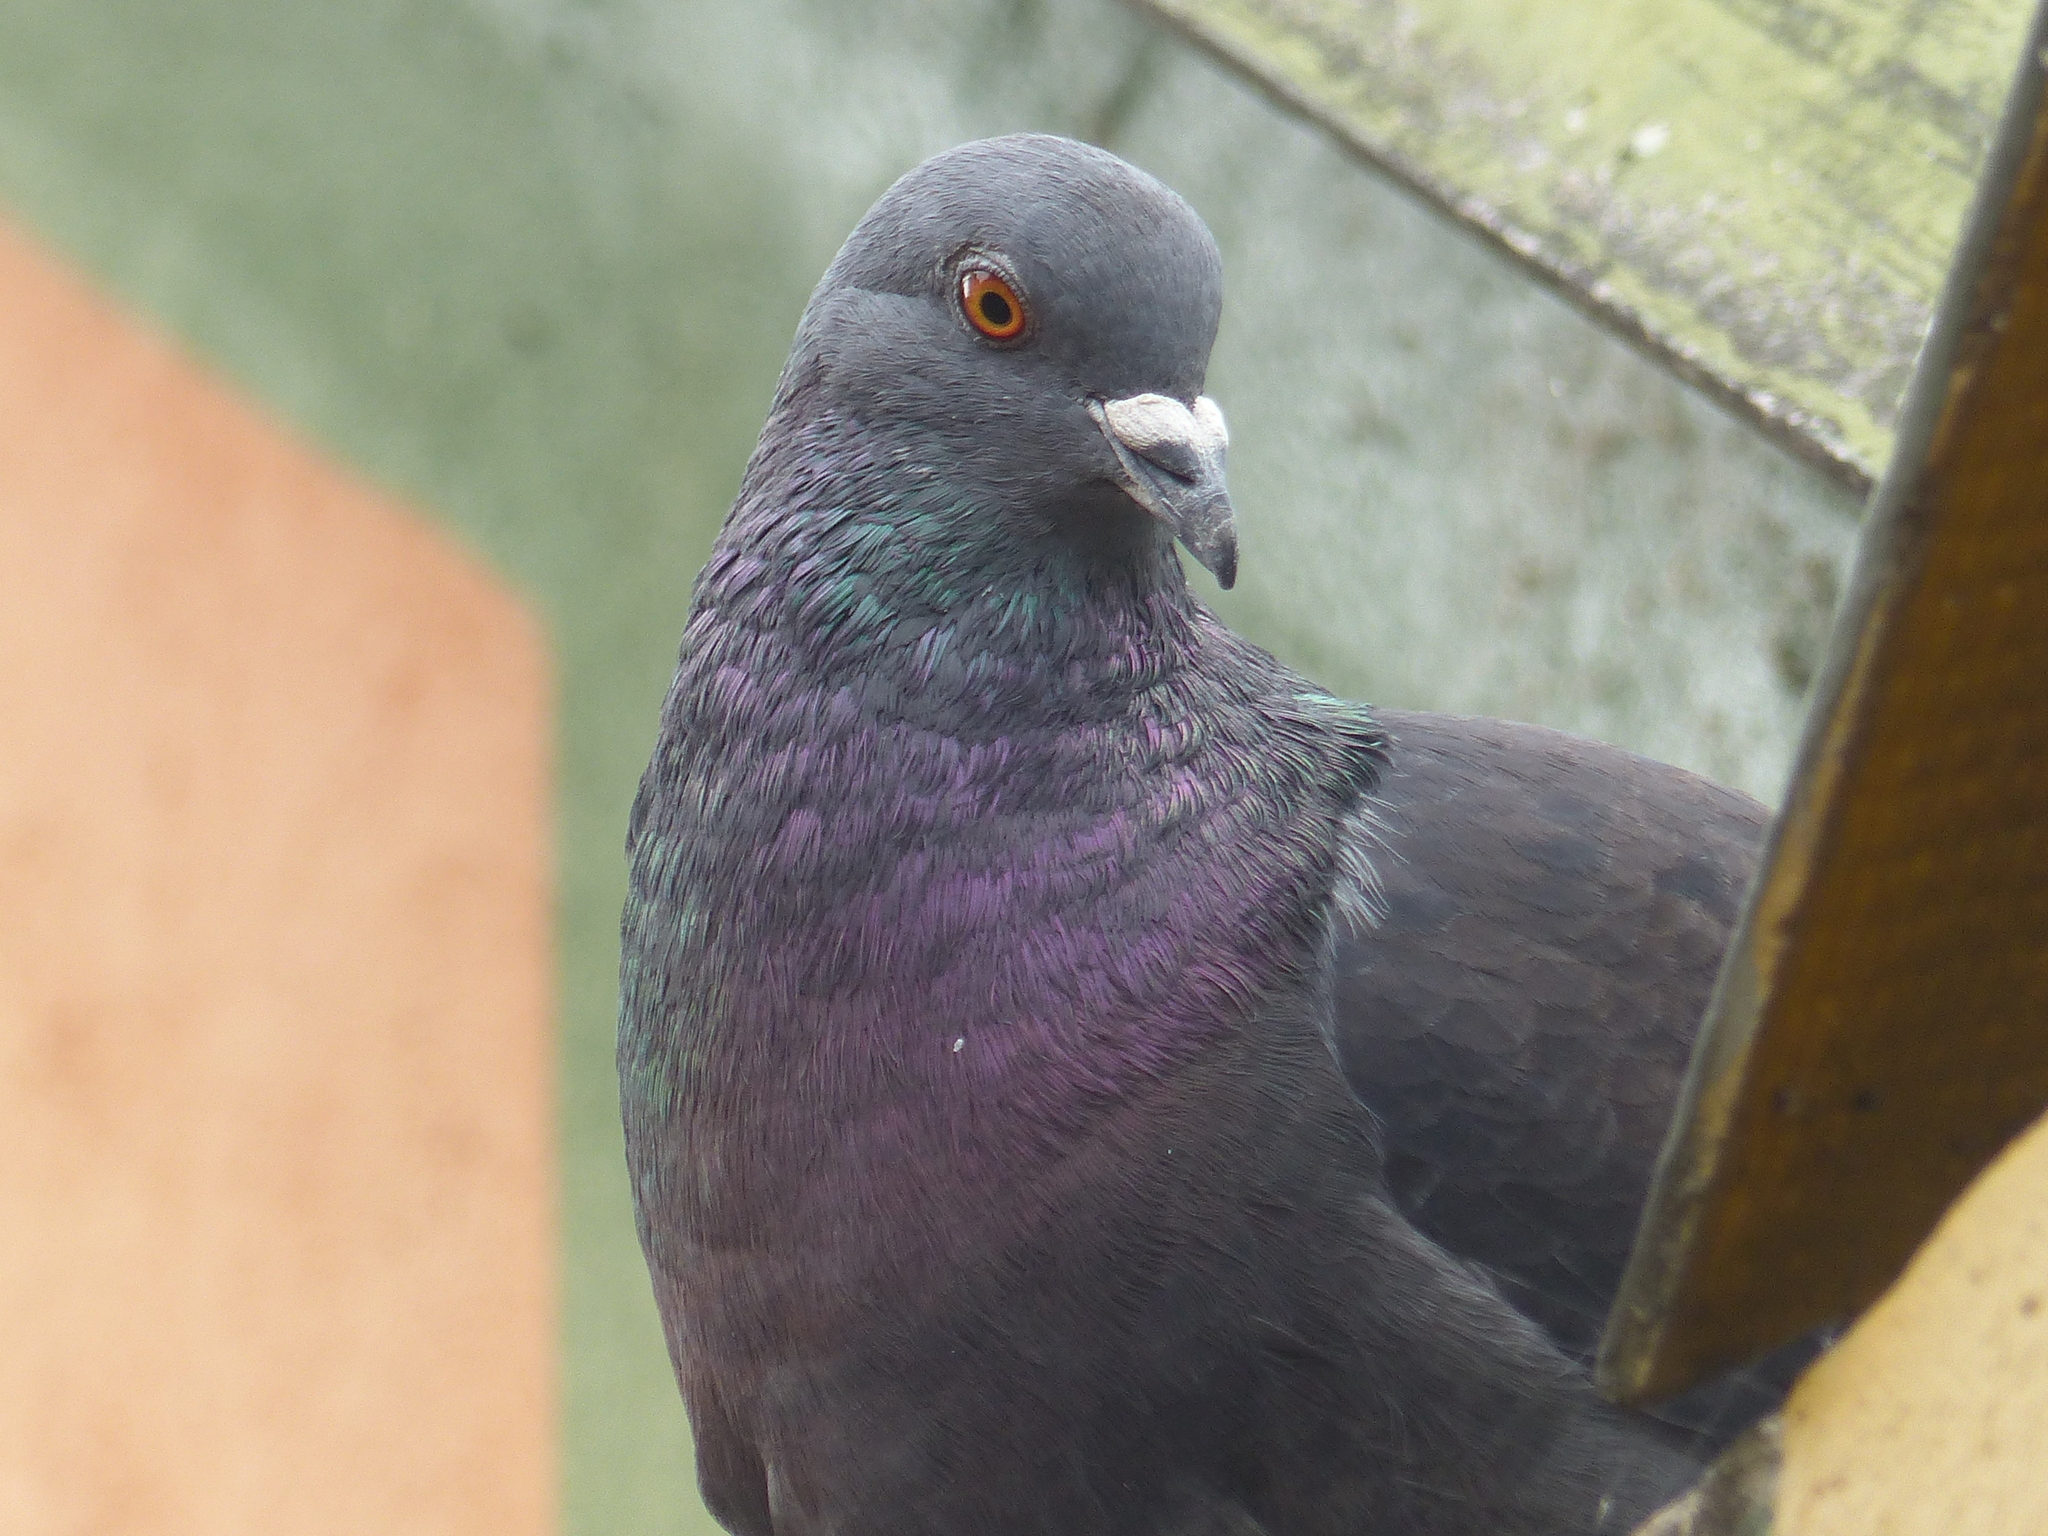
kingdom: Animalia
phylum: Chordata
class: Aves
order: Columbiformes
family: Columbidae
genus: Columba
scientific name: Columba livia
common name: Rock pigeon
